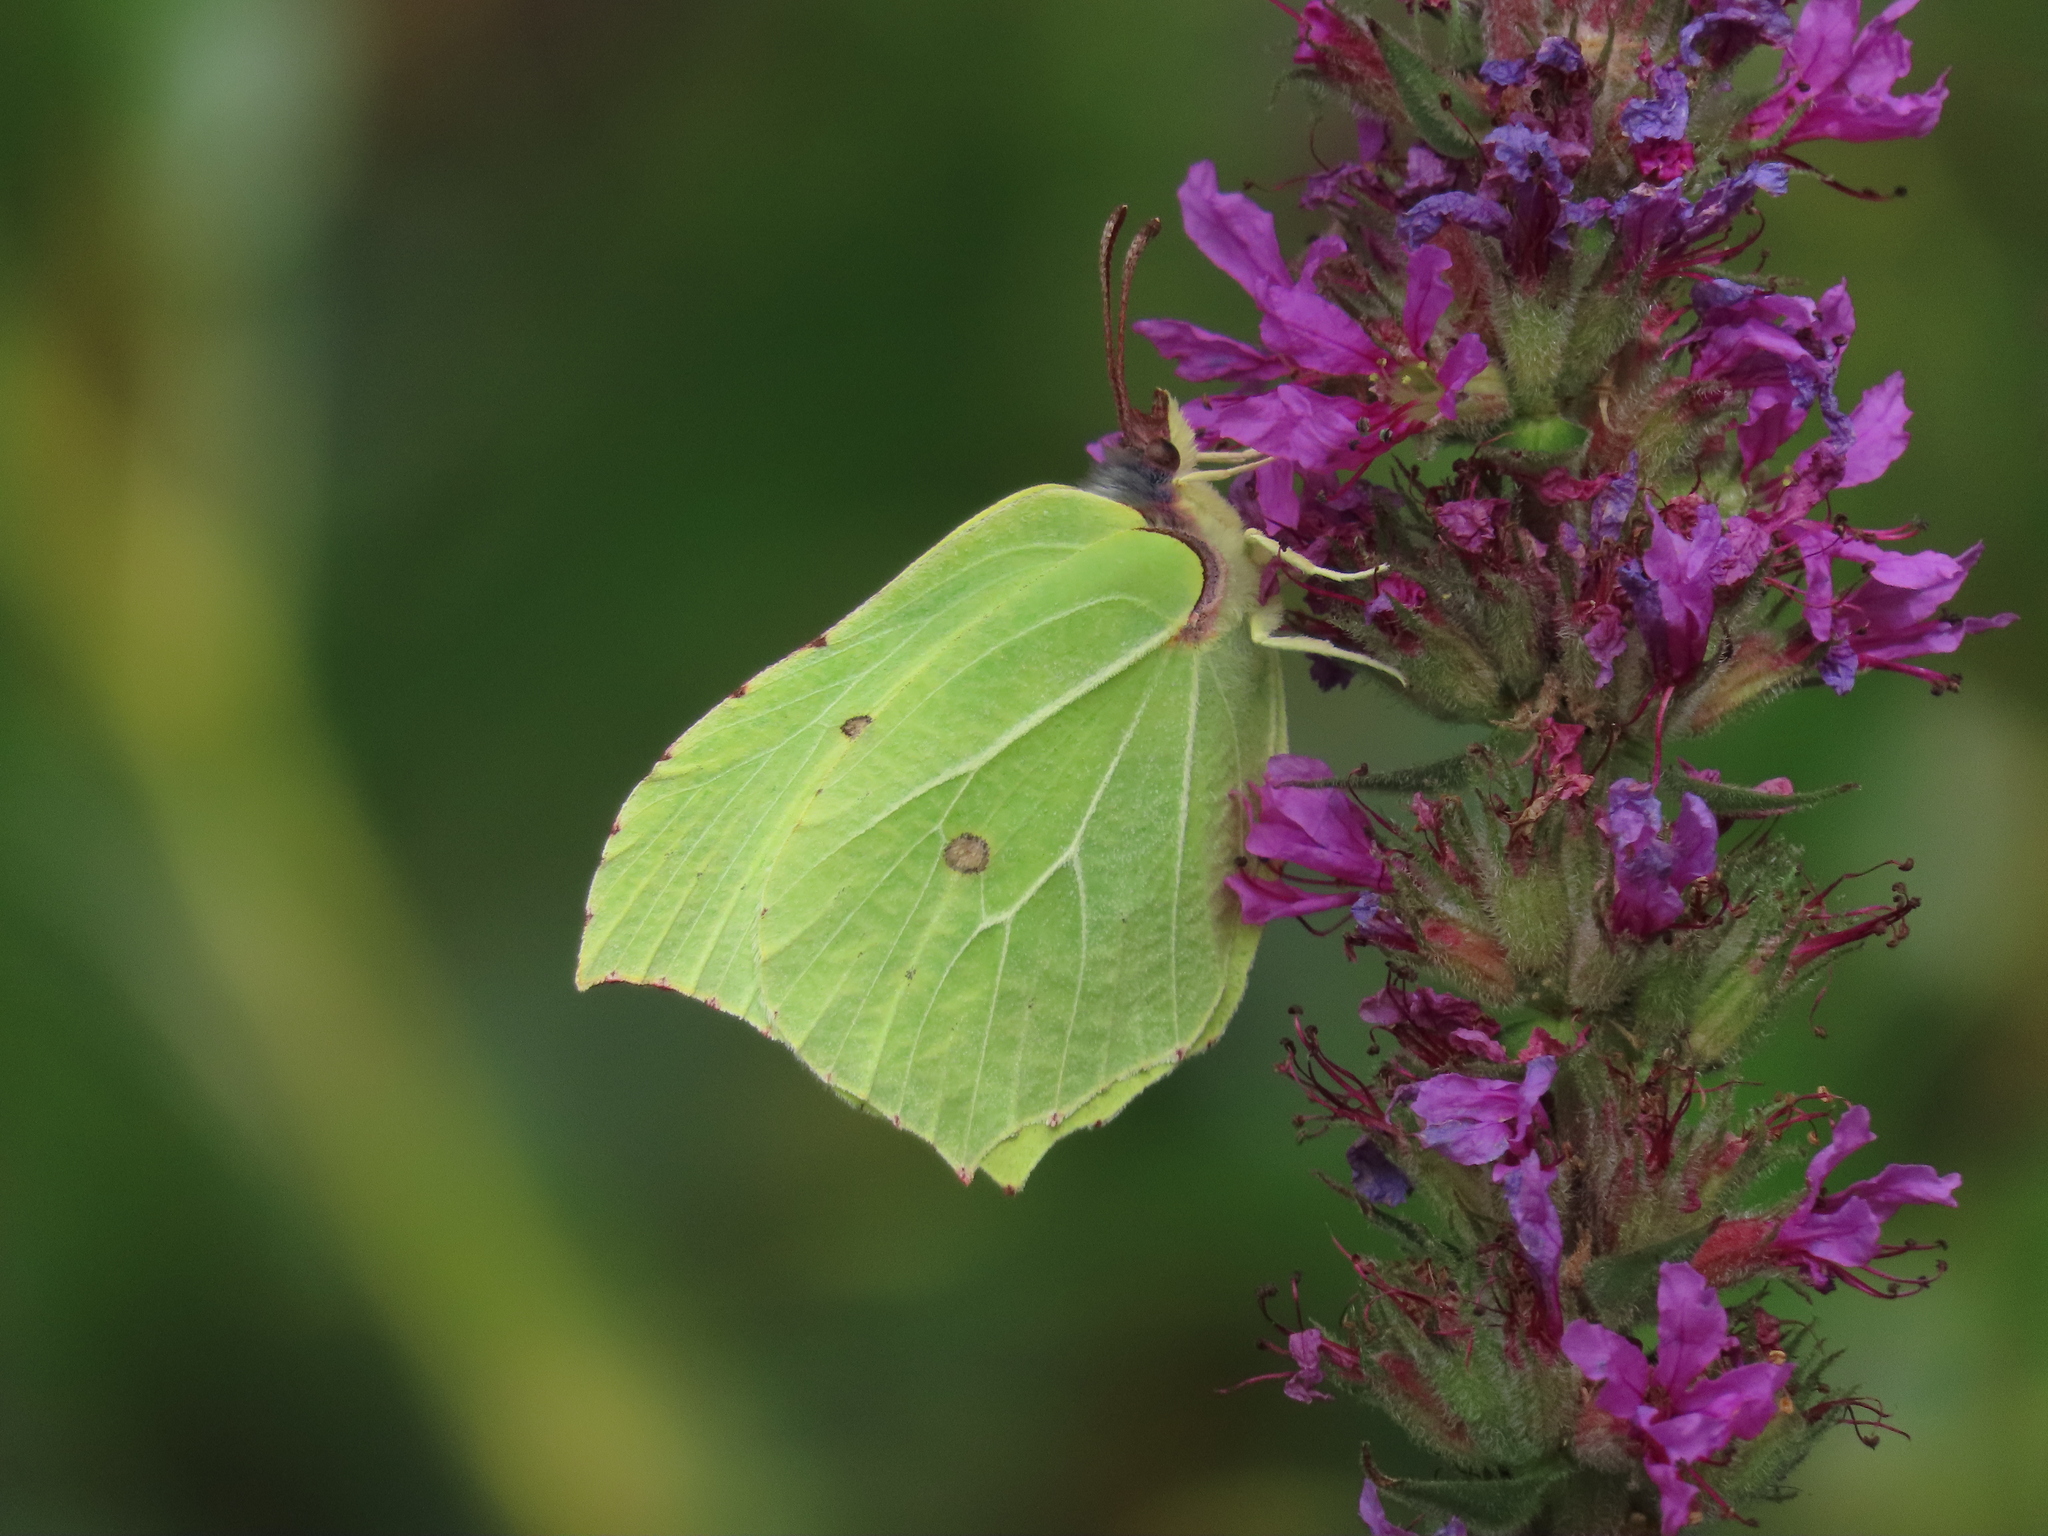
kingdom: Animalia
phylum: Arthropoda
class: Insecta
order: Lepidoptera
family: Pieridae
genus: Gonepteryx
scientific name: Gonepteryx rhamni
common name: Brimstone
